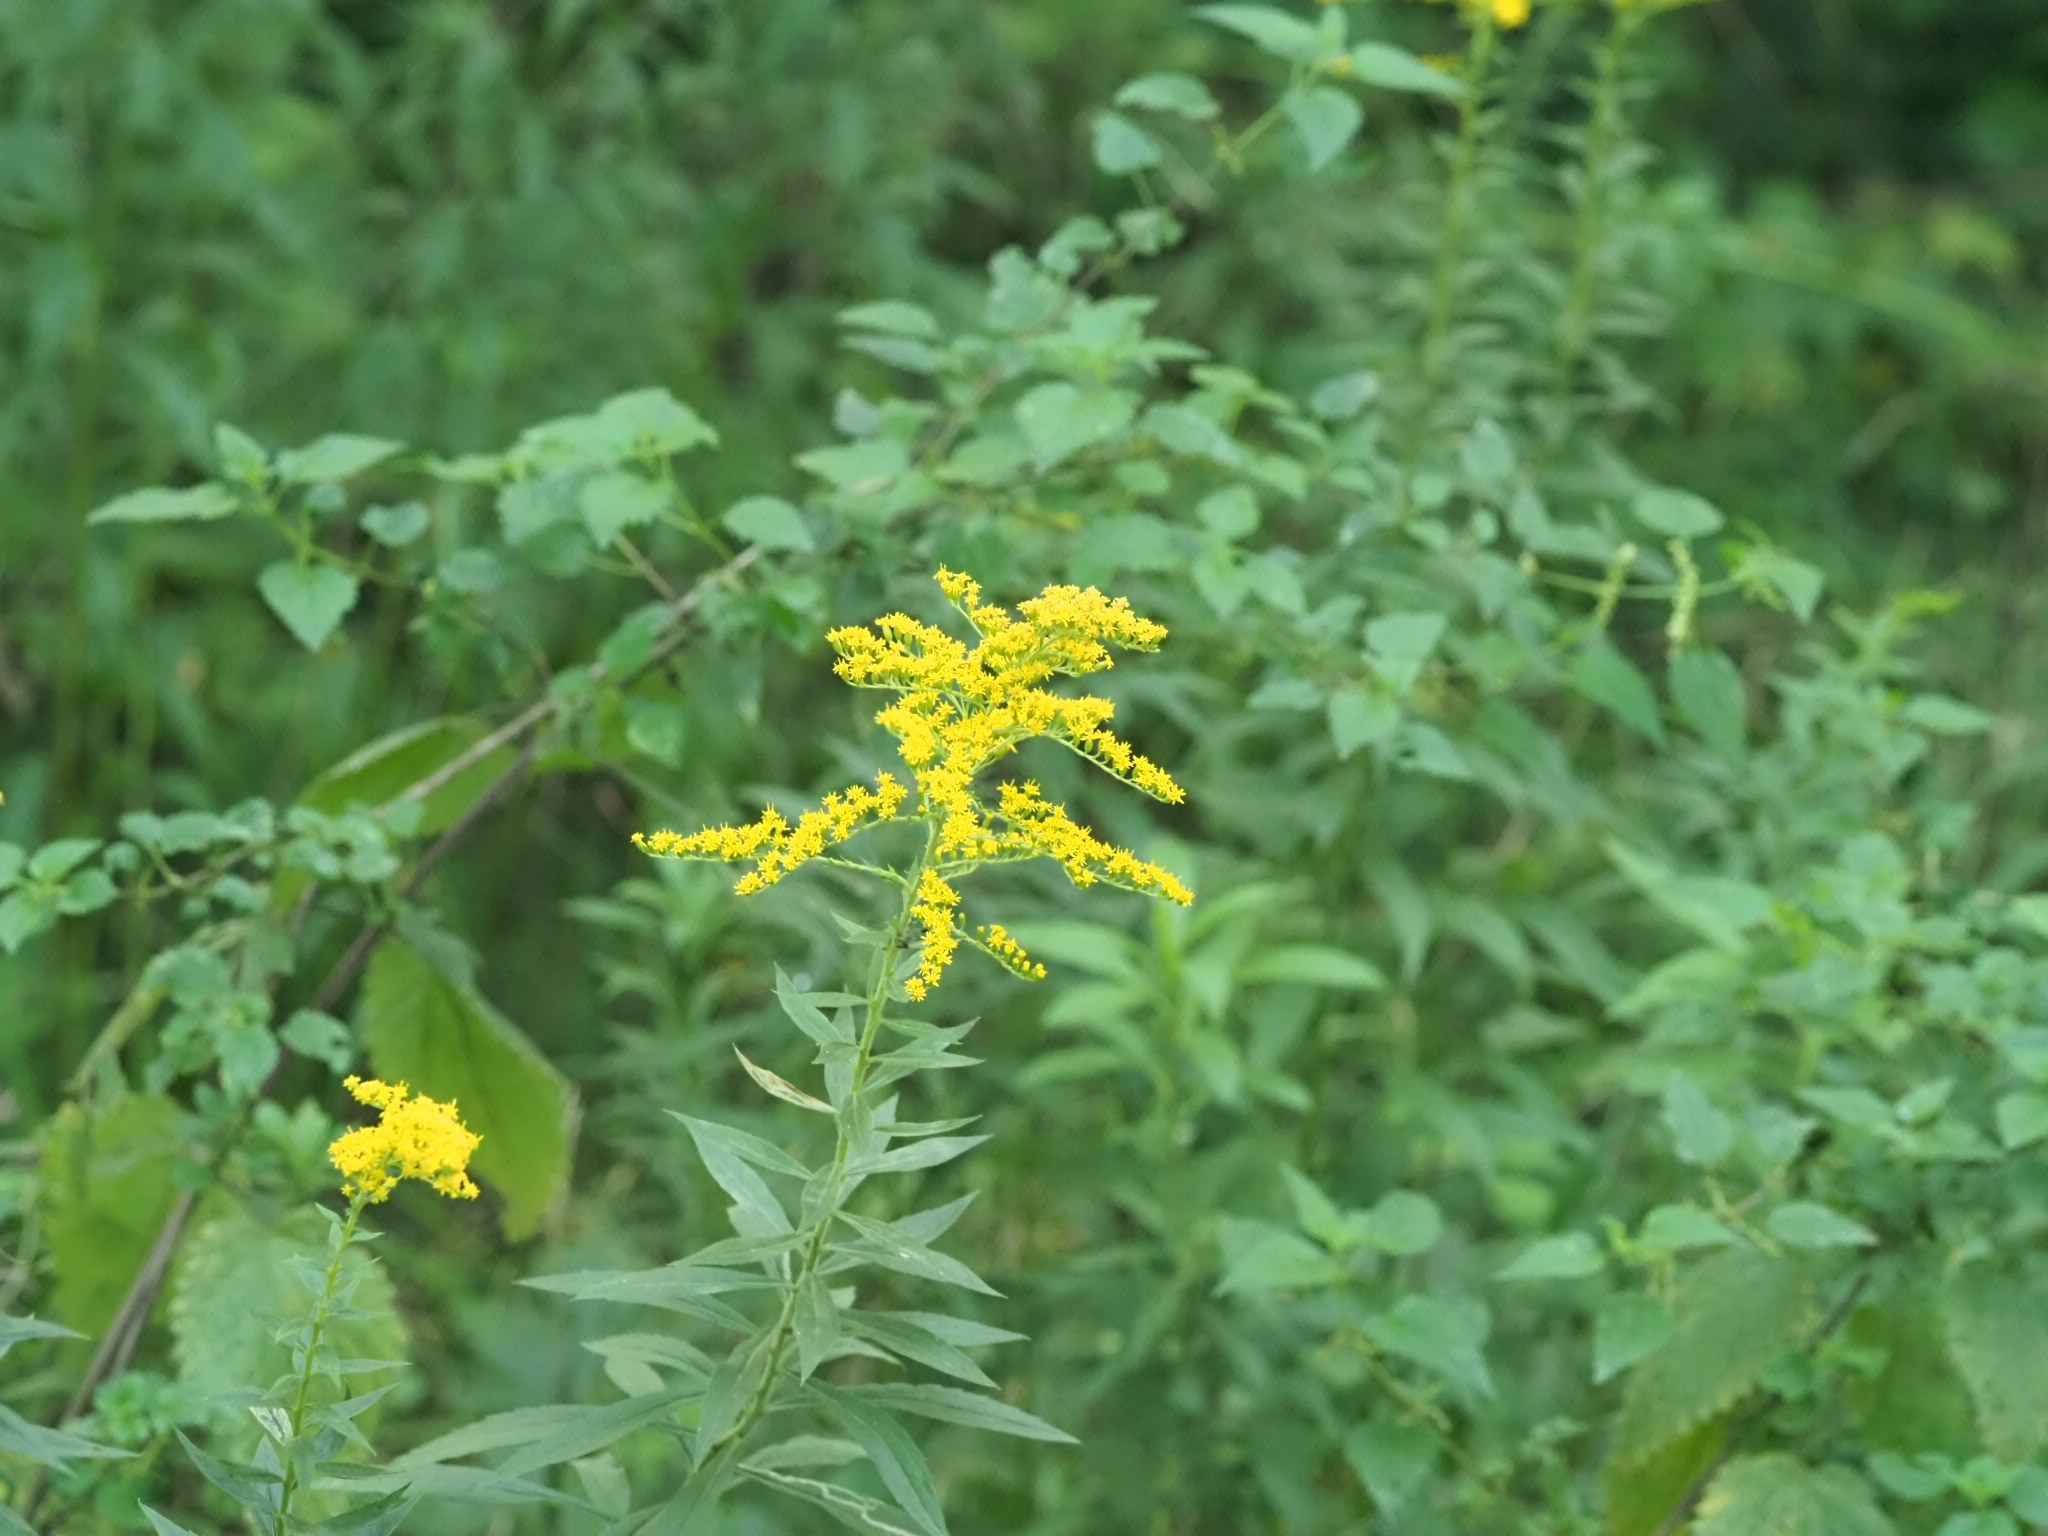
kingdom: Plantae
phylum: Tracheophyta
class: Magnoliopsida
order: Asterales
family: Asteraceae
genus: Solidago
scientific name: Solidago canadensis
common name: Canada goldenrod
